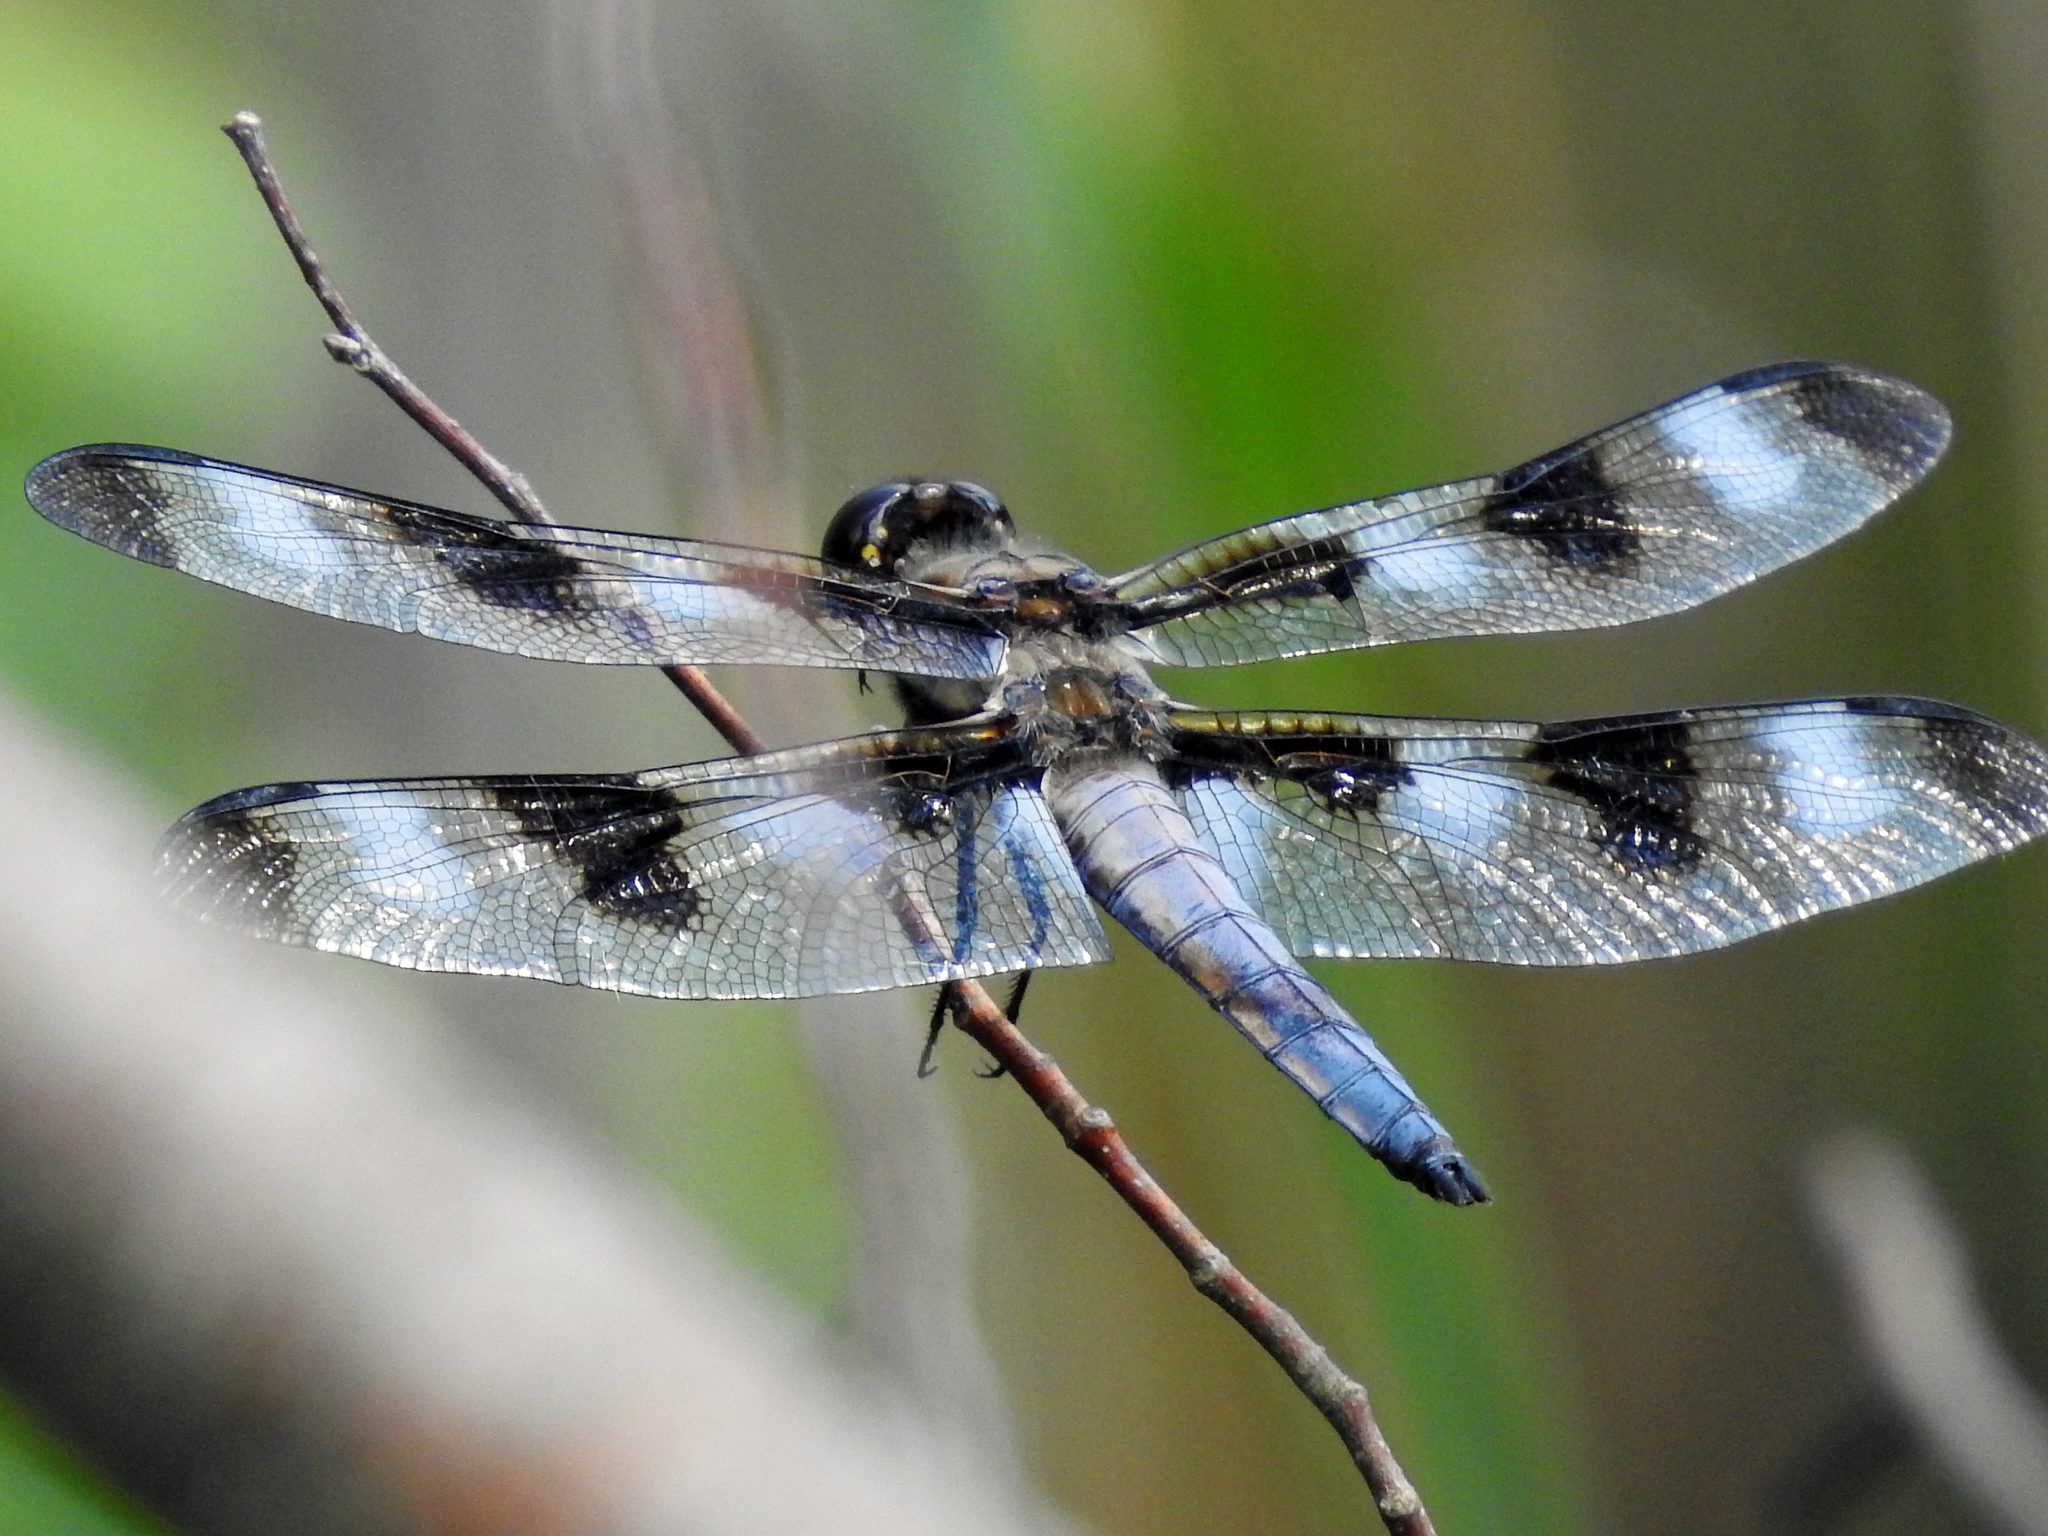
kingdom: Animalia
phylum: Arthropoda
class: Insecta
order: Odonata
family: Libellulidae
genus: Libellula
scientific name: Libellula pulchella
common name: Twelve-spotted skimmer
